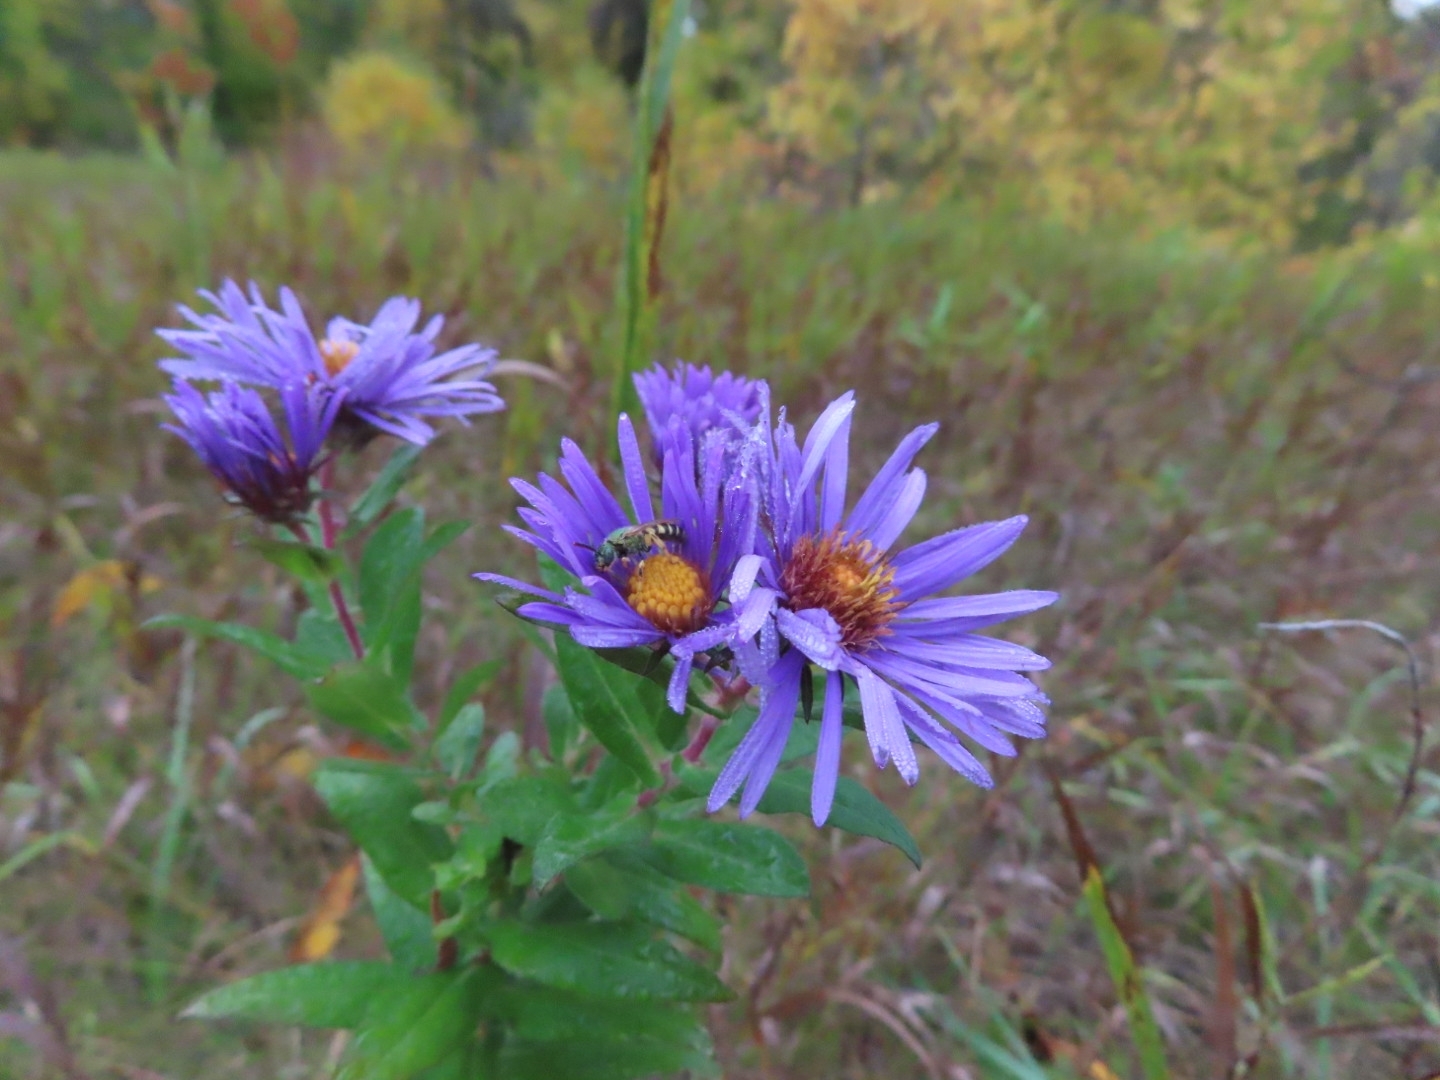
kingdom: Plantae
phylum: Tracheophyta
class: Magnoliopsida
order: Asterales
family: Asteraceae
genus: Symphyotrichum
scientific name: Symphyotrichum novae-angliae
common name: Michaelmas daisy
